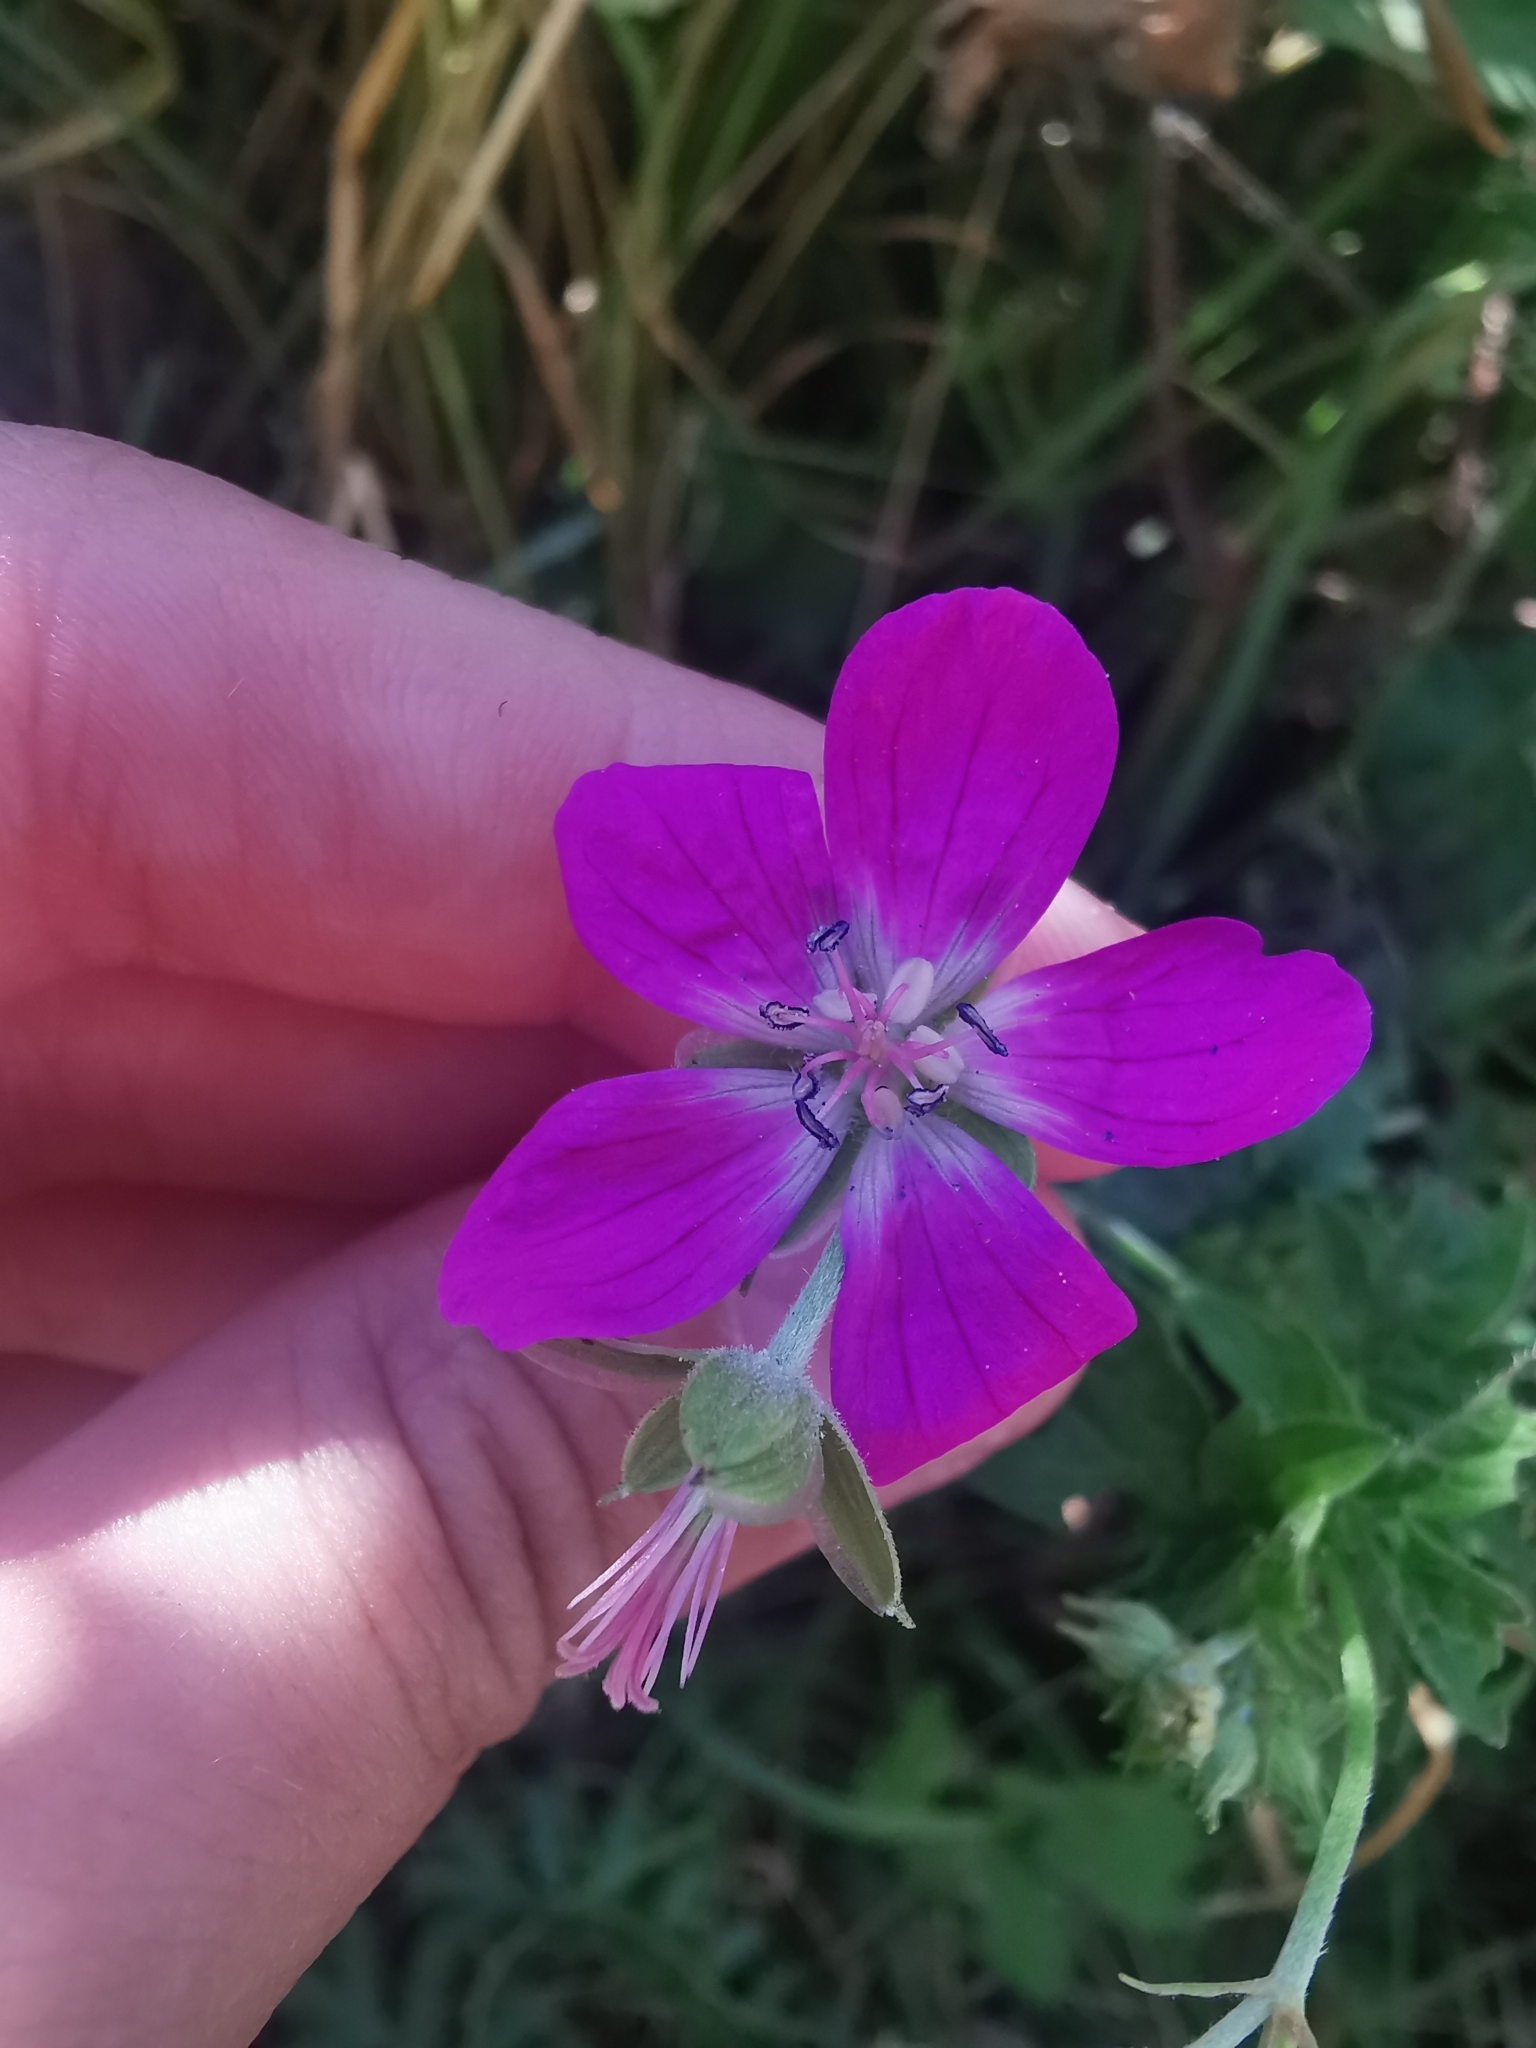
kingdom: Plantae
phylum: Tracheophyta
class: Magnoliopsida
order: Geraniales
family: Geraniaceae
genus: Geranium
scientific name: Geranium palustre
